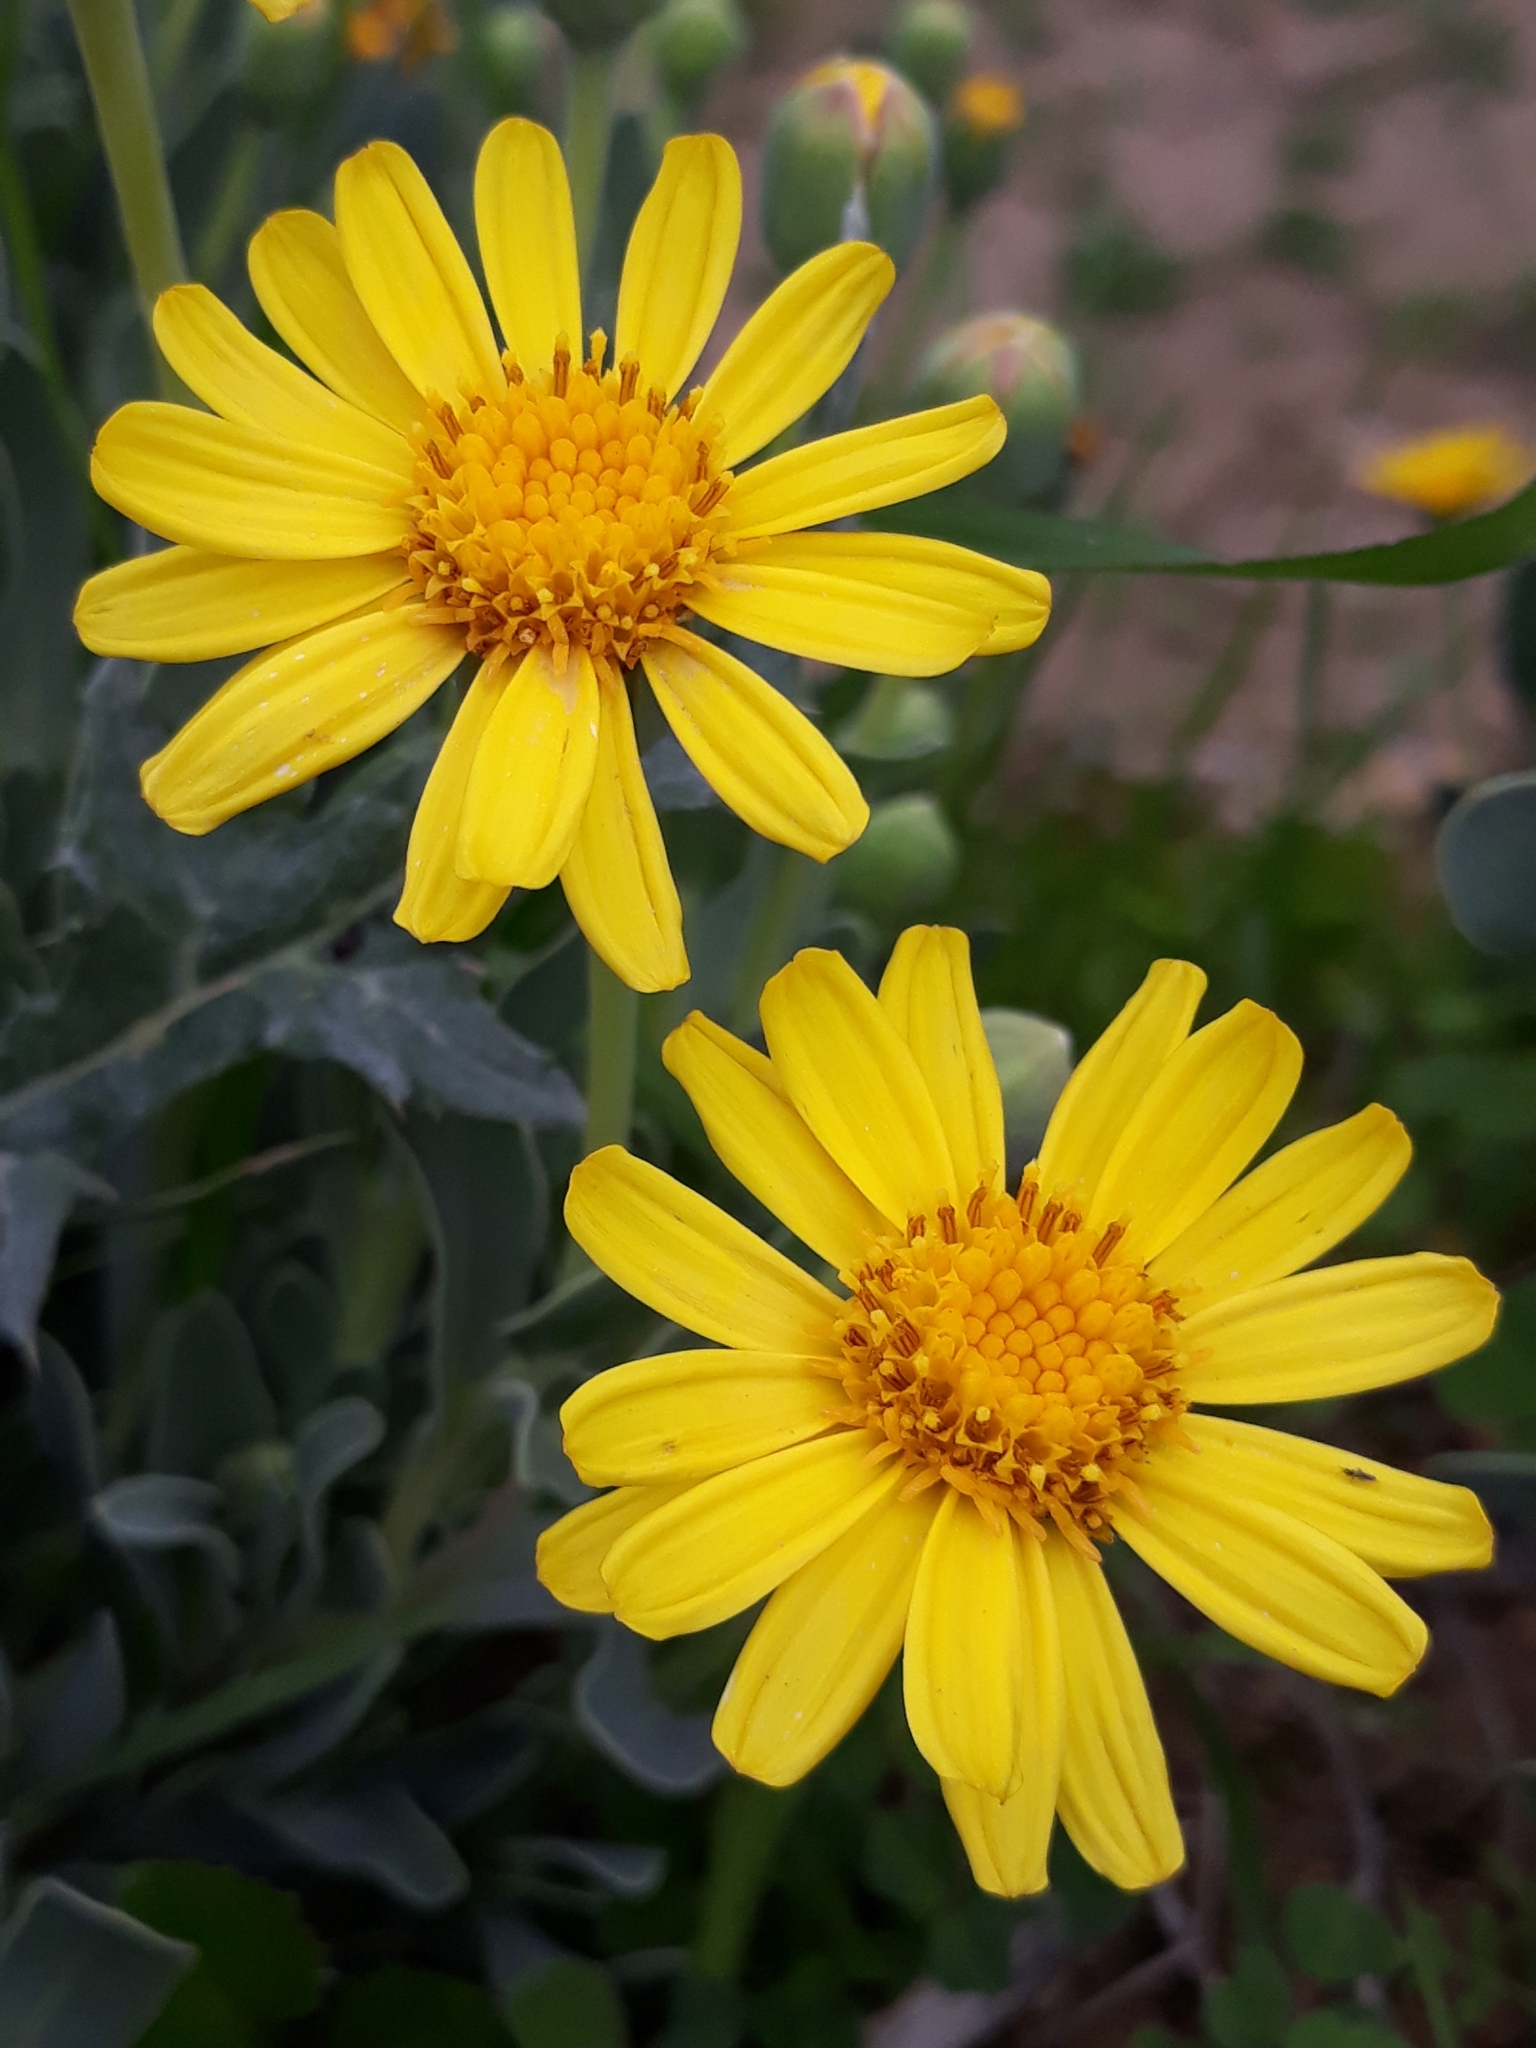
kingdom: Plantae
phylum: Tracheophyta
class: Magnoliopsida
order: Asterales
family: Asteraceae
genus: Hertia
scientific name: Hertia cheirifolia
